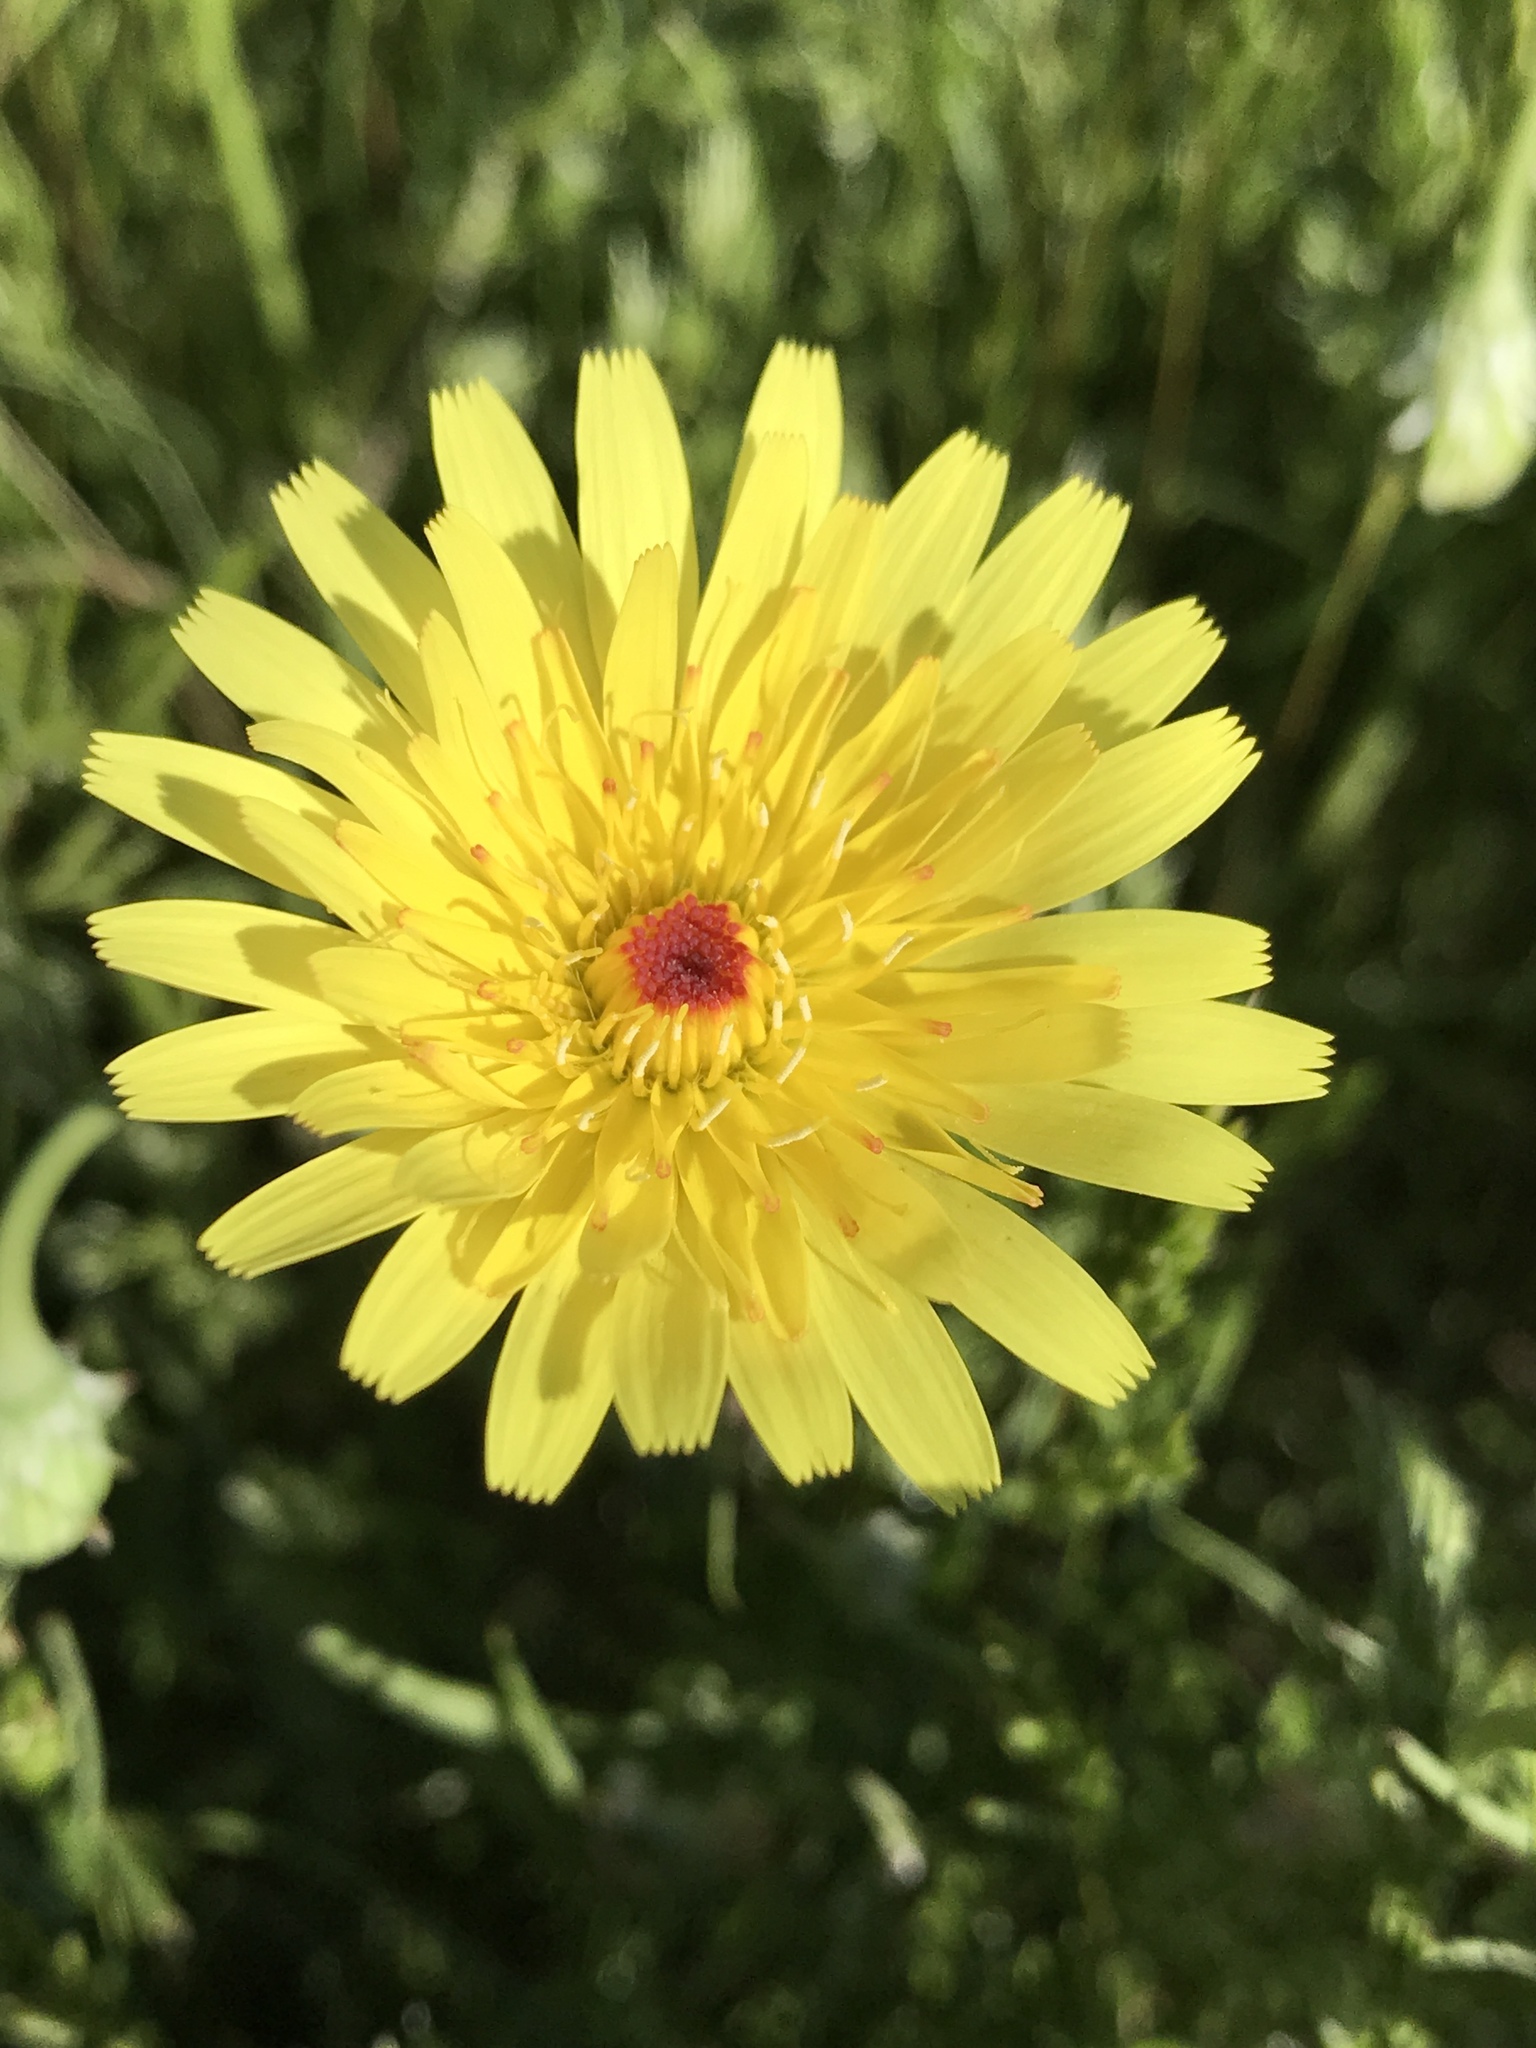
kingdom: Plantae
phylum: Tracheophyta
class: Magnoliopsida
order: Asterales
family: Asteraceae
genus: Malacothrix
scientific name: Malacothrix glabrata
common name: Smooth desert-dandelion
